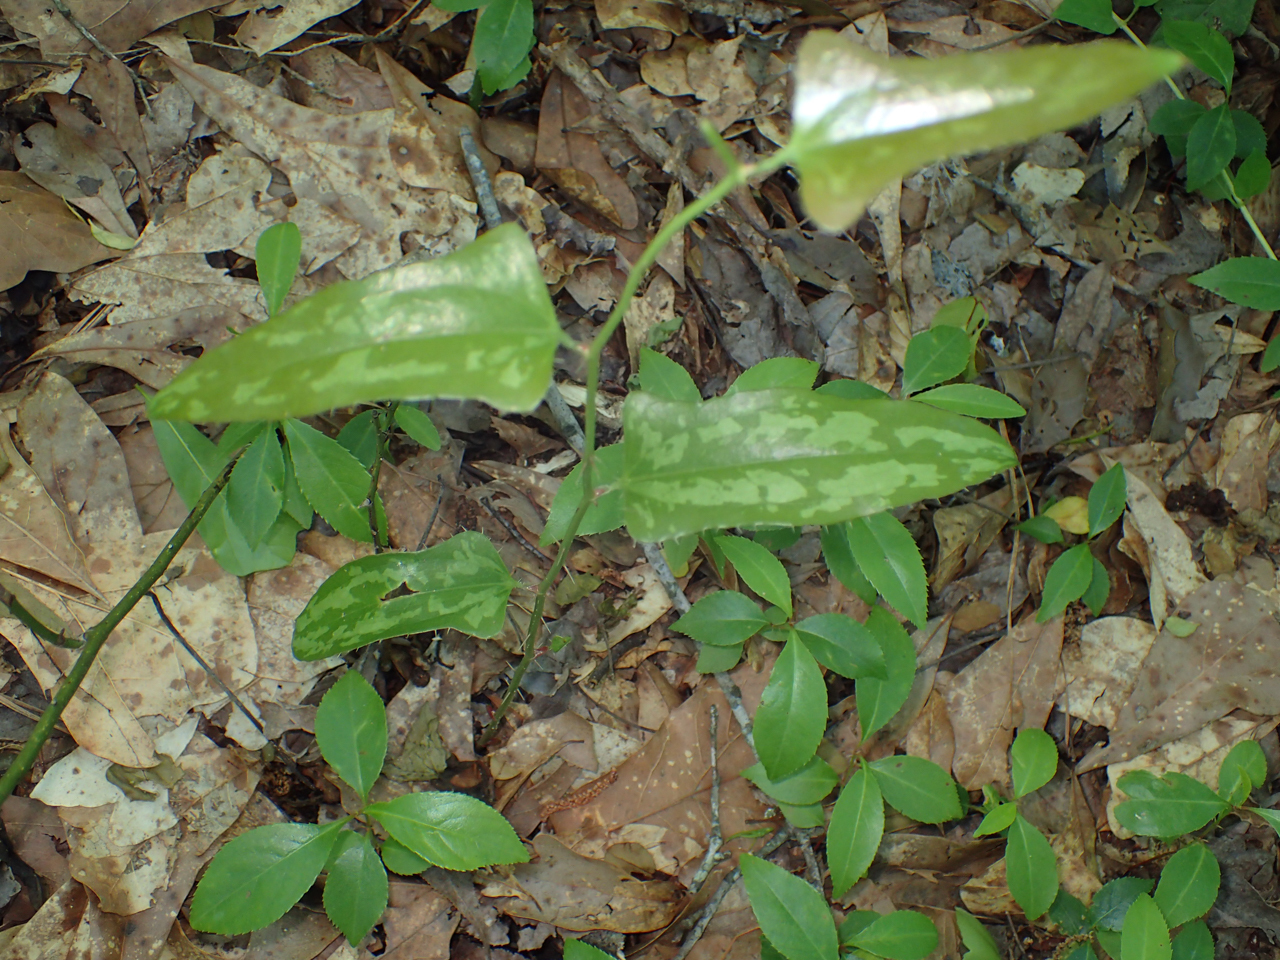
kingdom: Plantae
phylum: Tracheophyta
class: Liliopsida
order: Liliales
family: Smilacaceae
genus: Smilax
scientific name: Smilax bona-nox
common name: Catbrier
